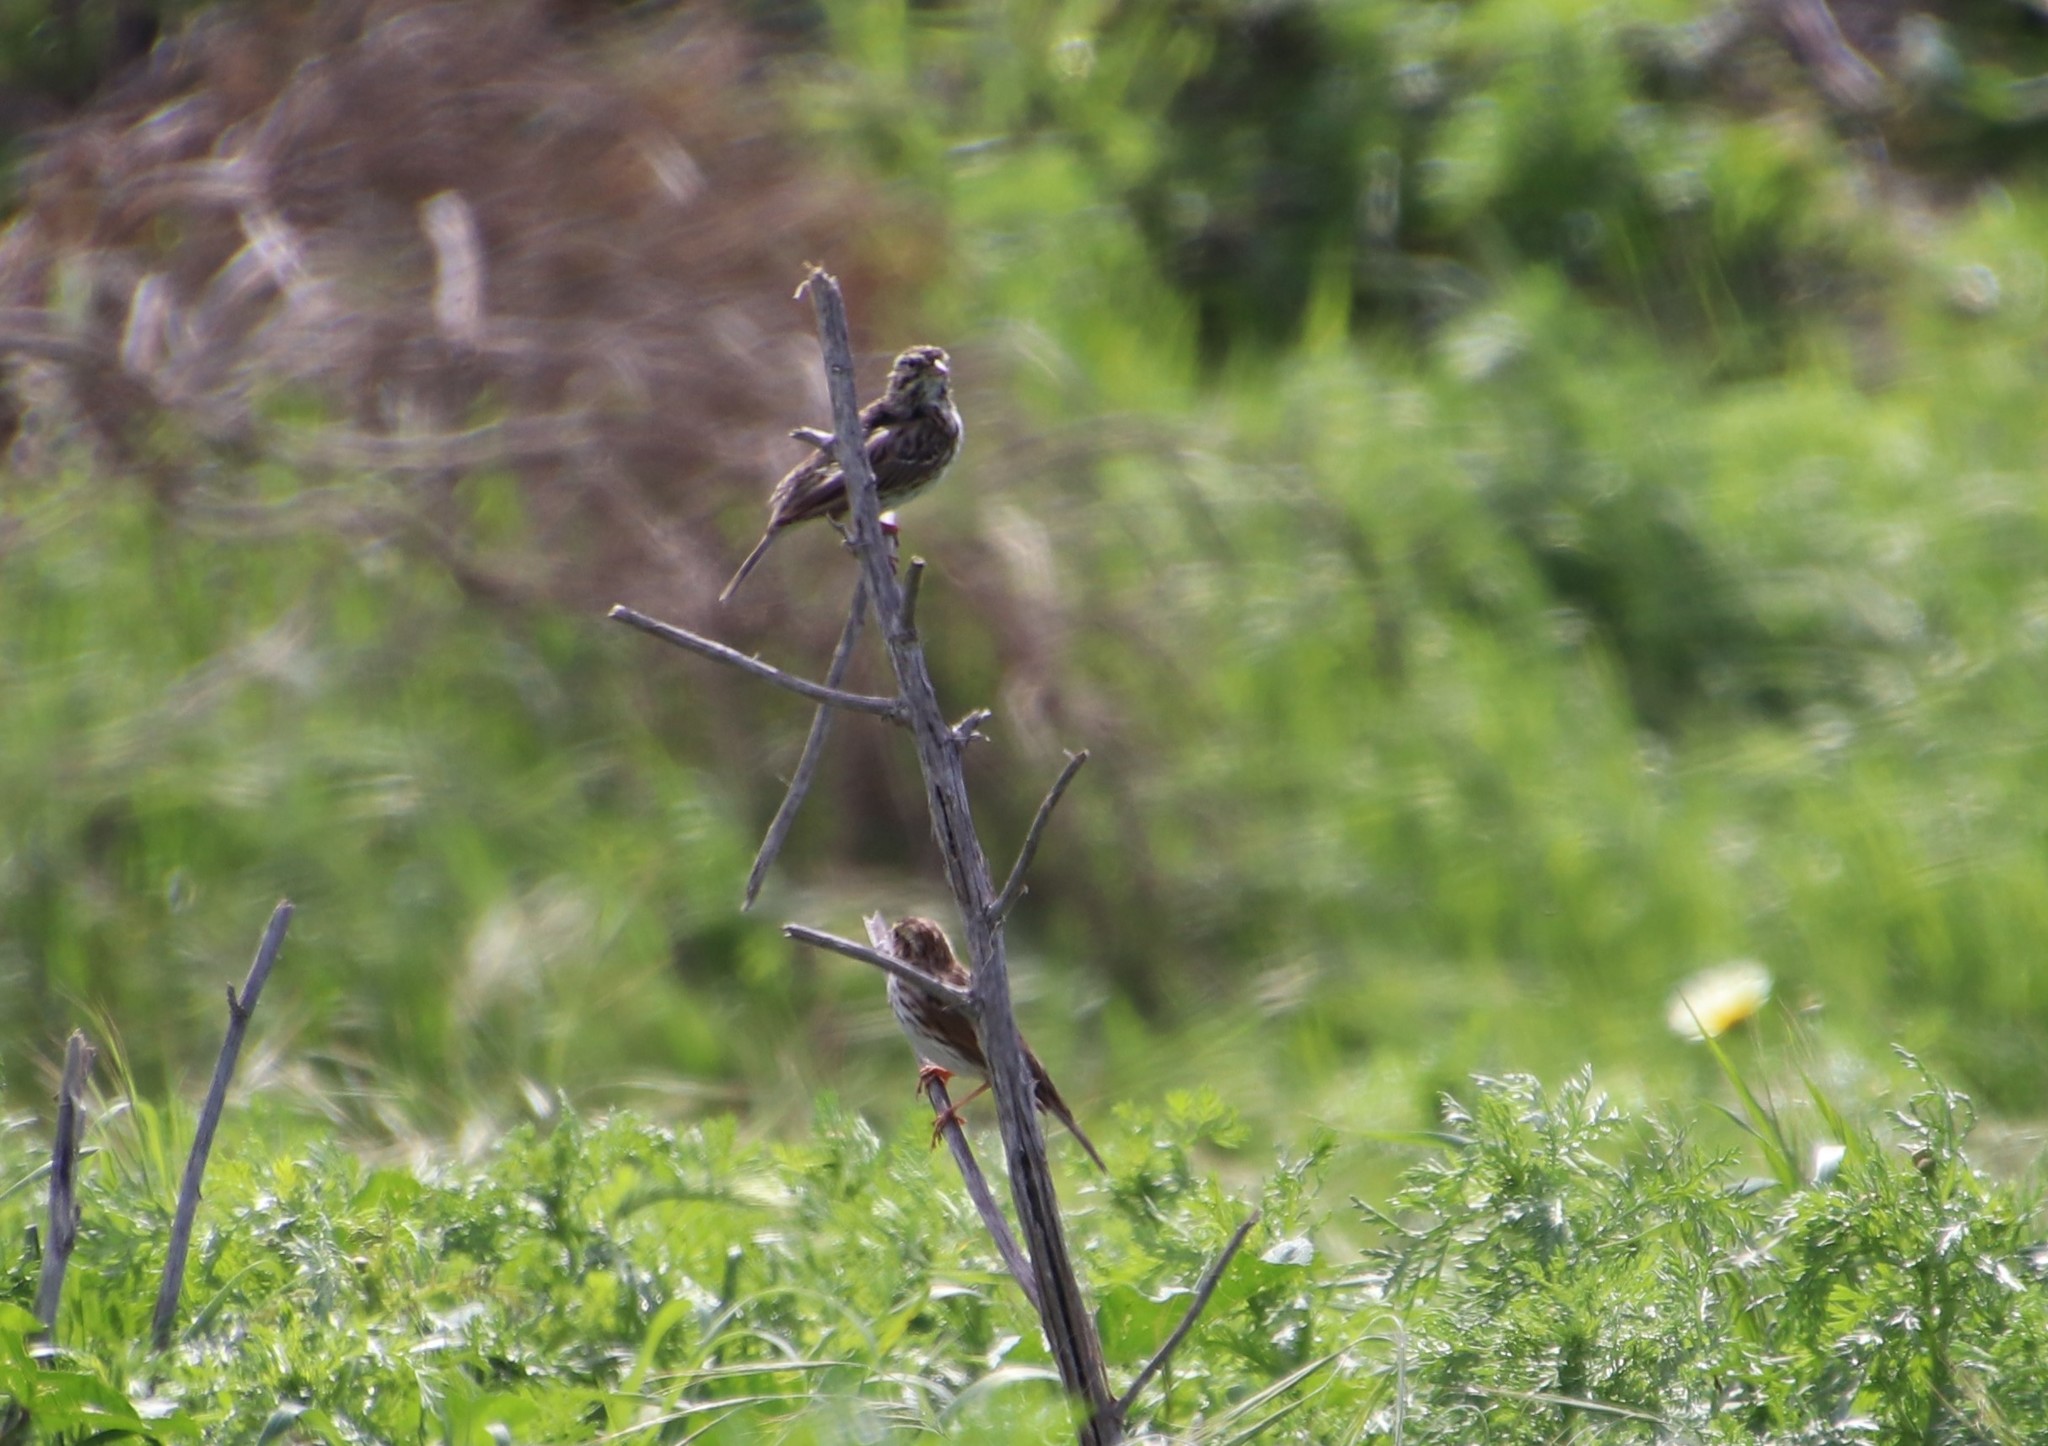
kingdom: Animalia
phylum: Chordata
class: Aves
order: Passeriformes
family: Passerellidae
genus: Passerculus
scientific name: Passerculus sandwichensis
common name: Savannah sparrow
